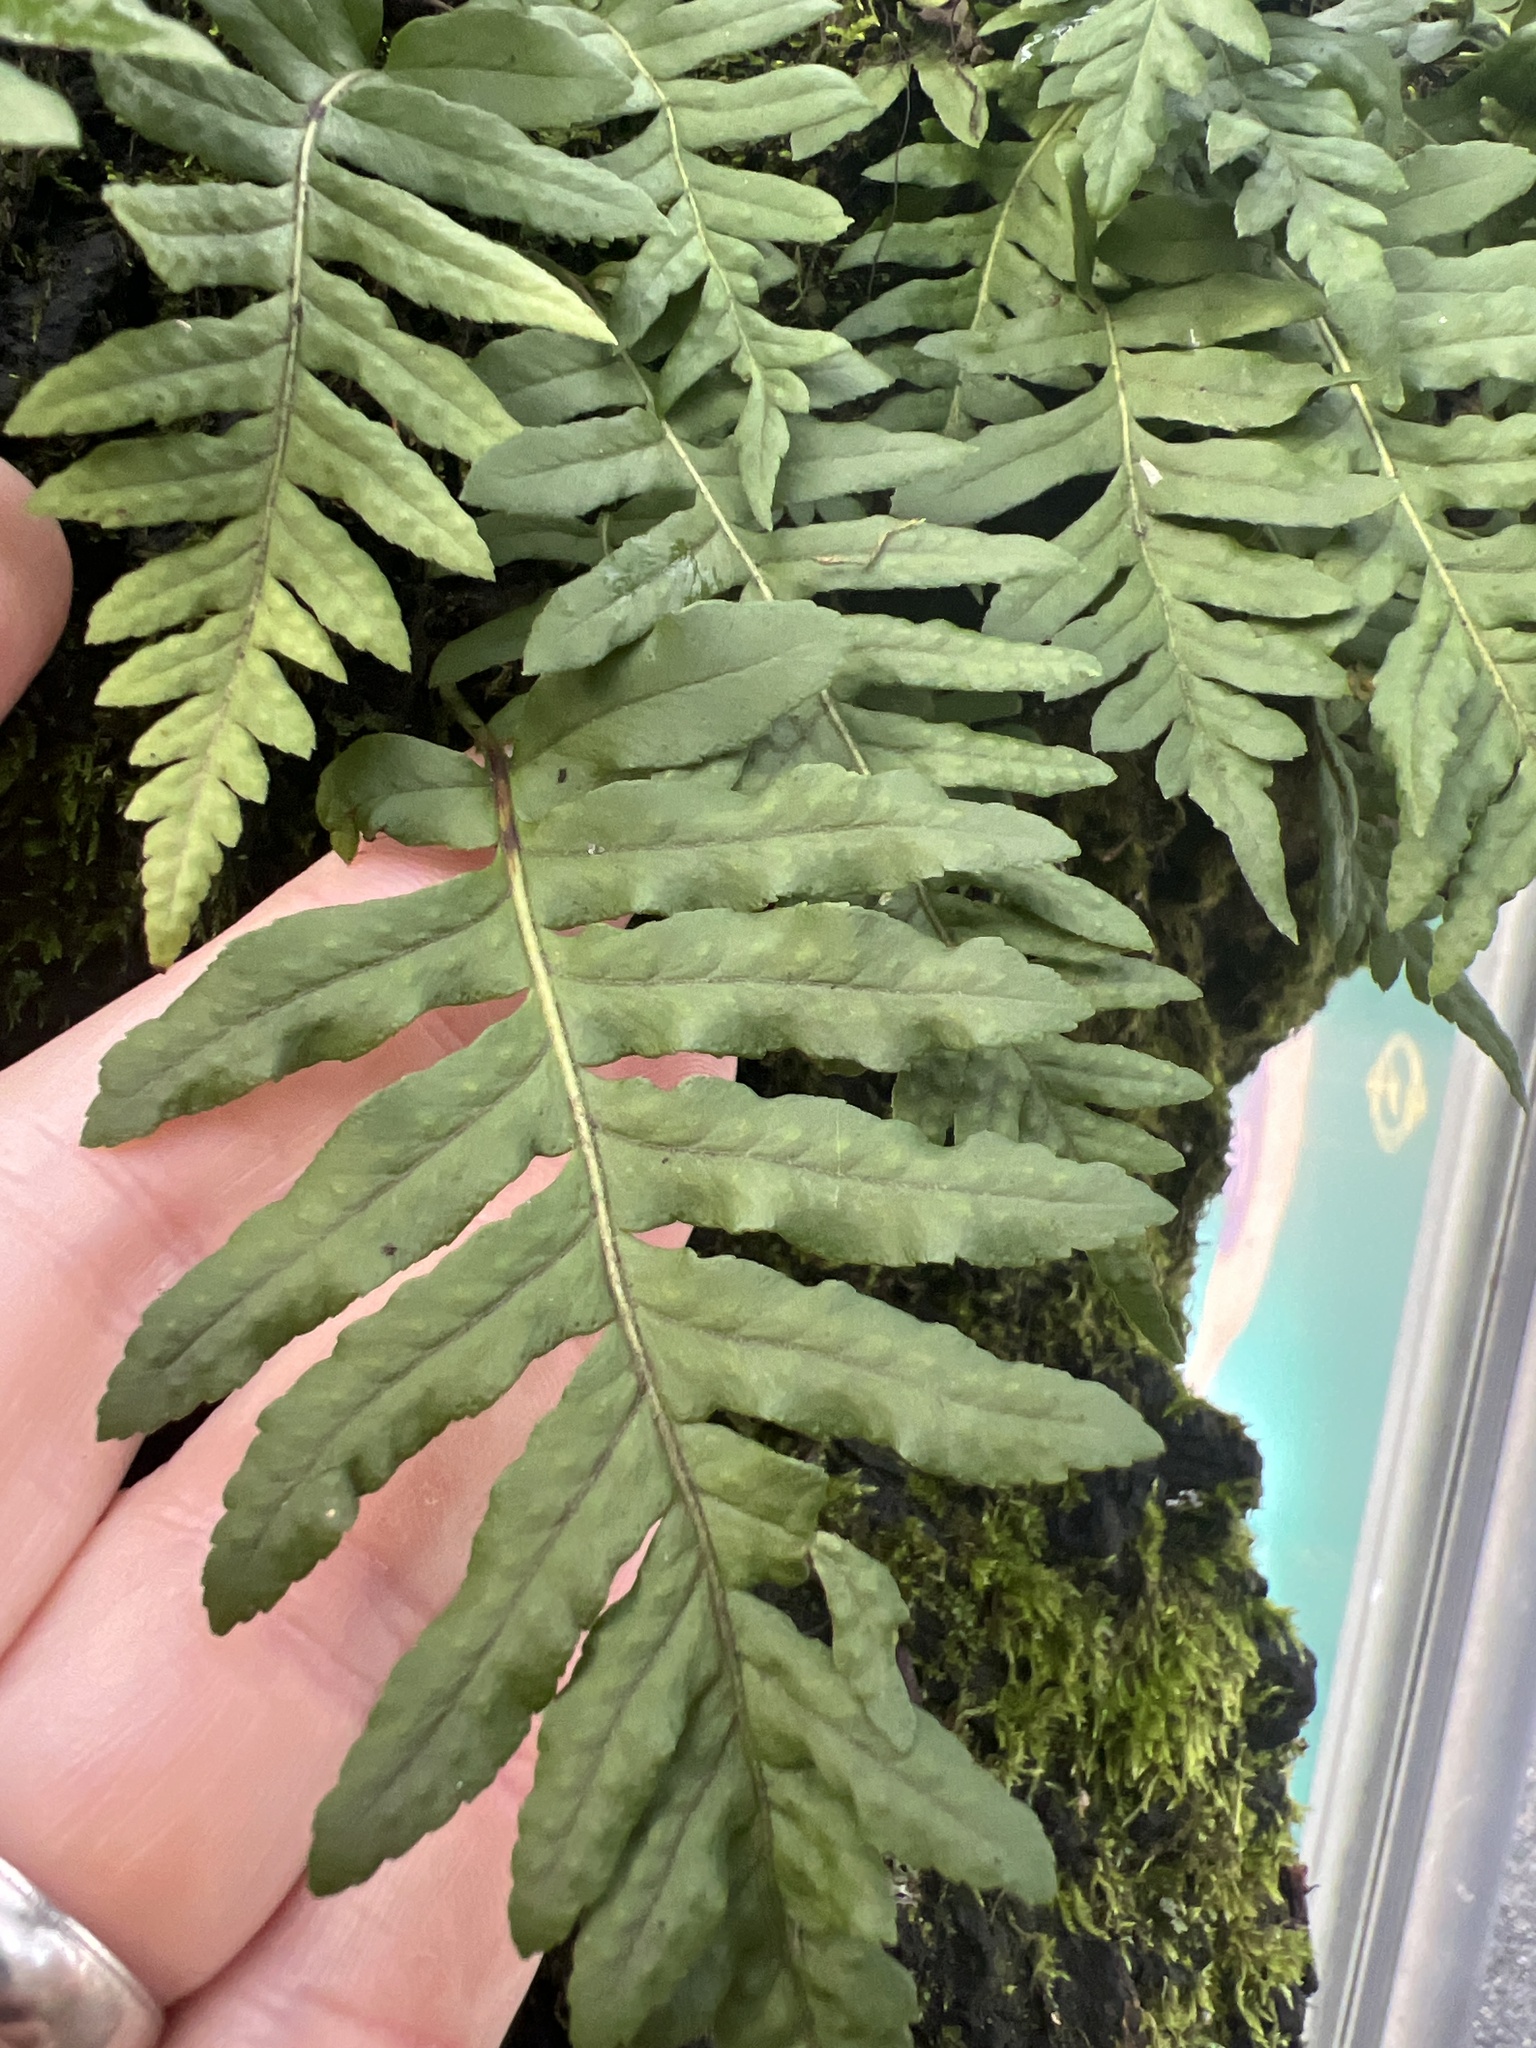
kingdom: Plantae
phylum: Tracheophyta
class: Polypodiopsida
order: Polypodiales
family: Polypodiaceae
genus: Polypodium
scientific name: Polypodium glycyrrhiza
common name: Licorice fern
